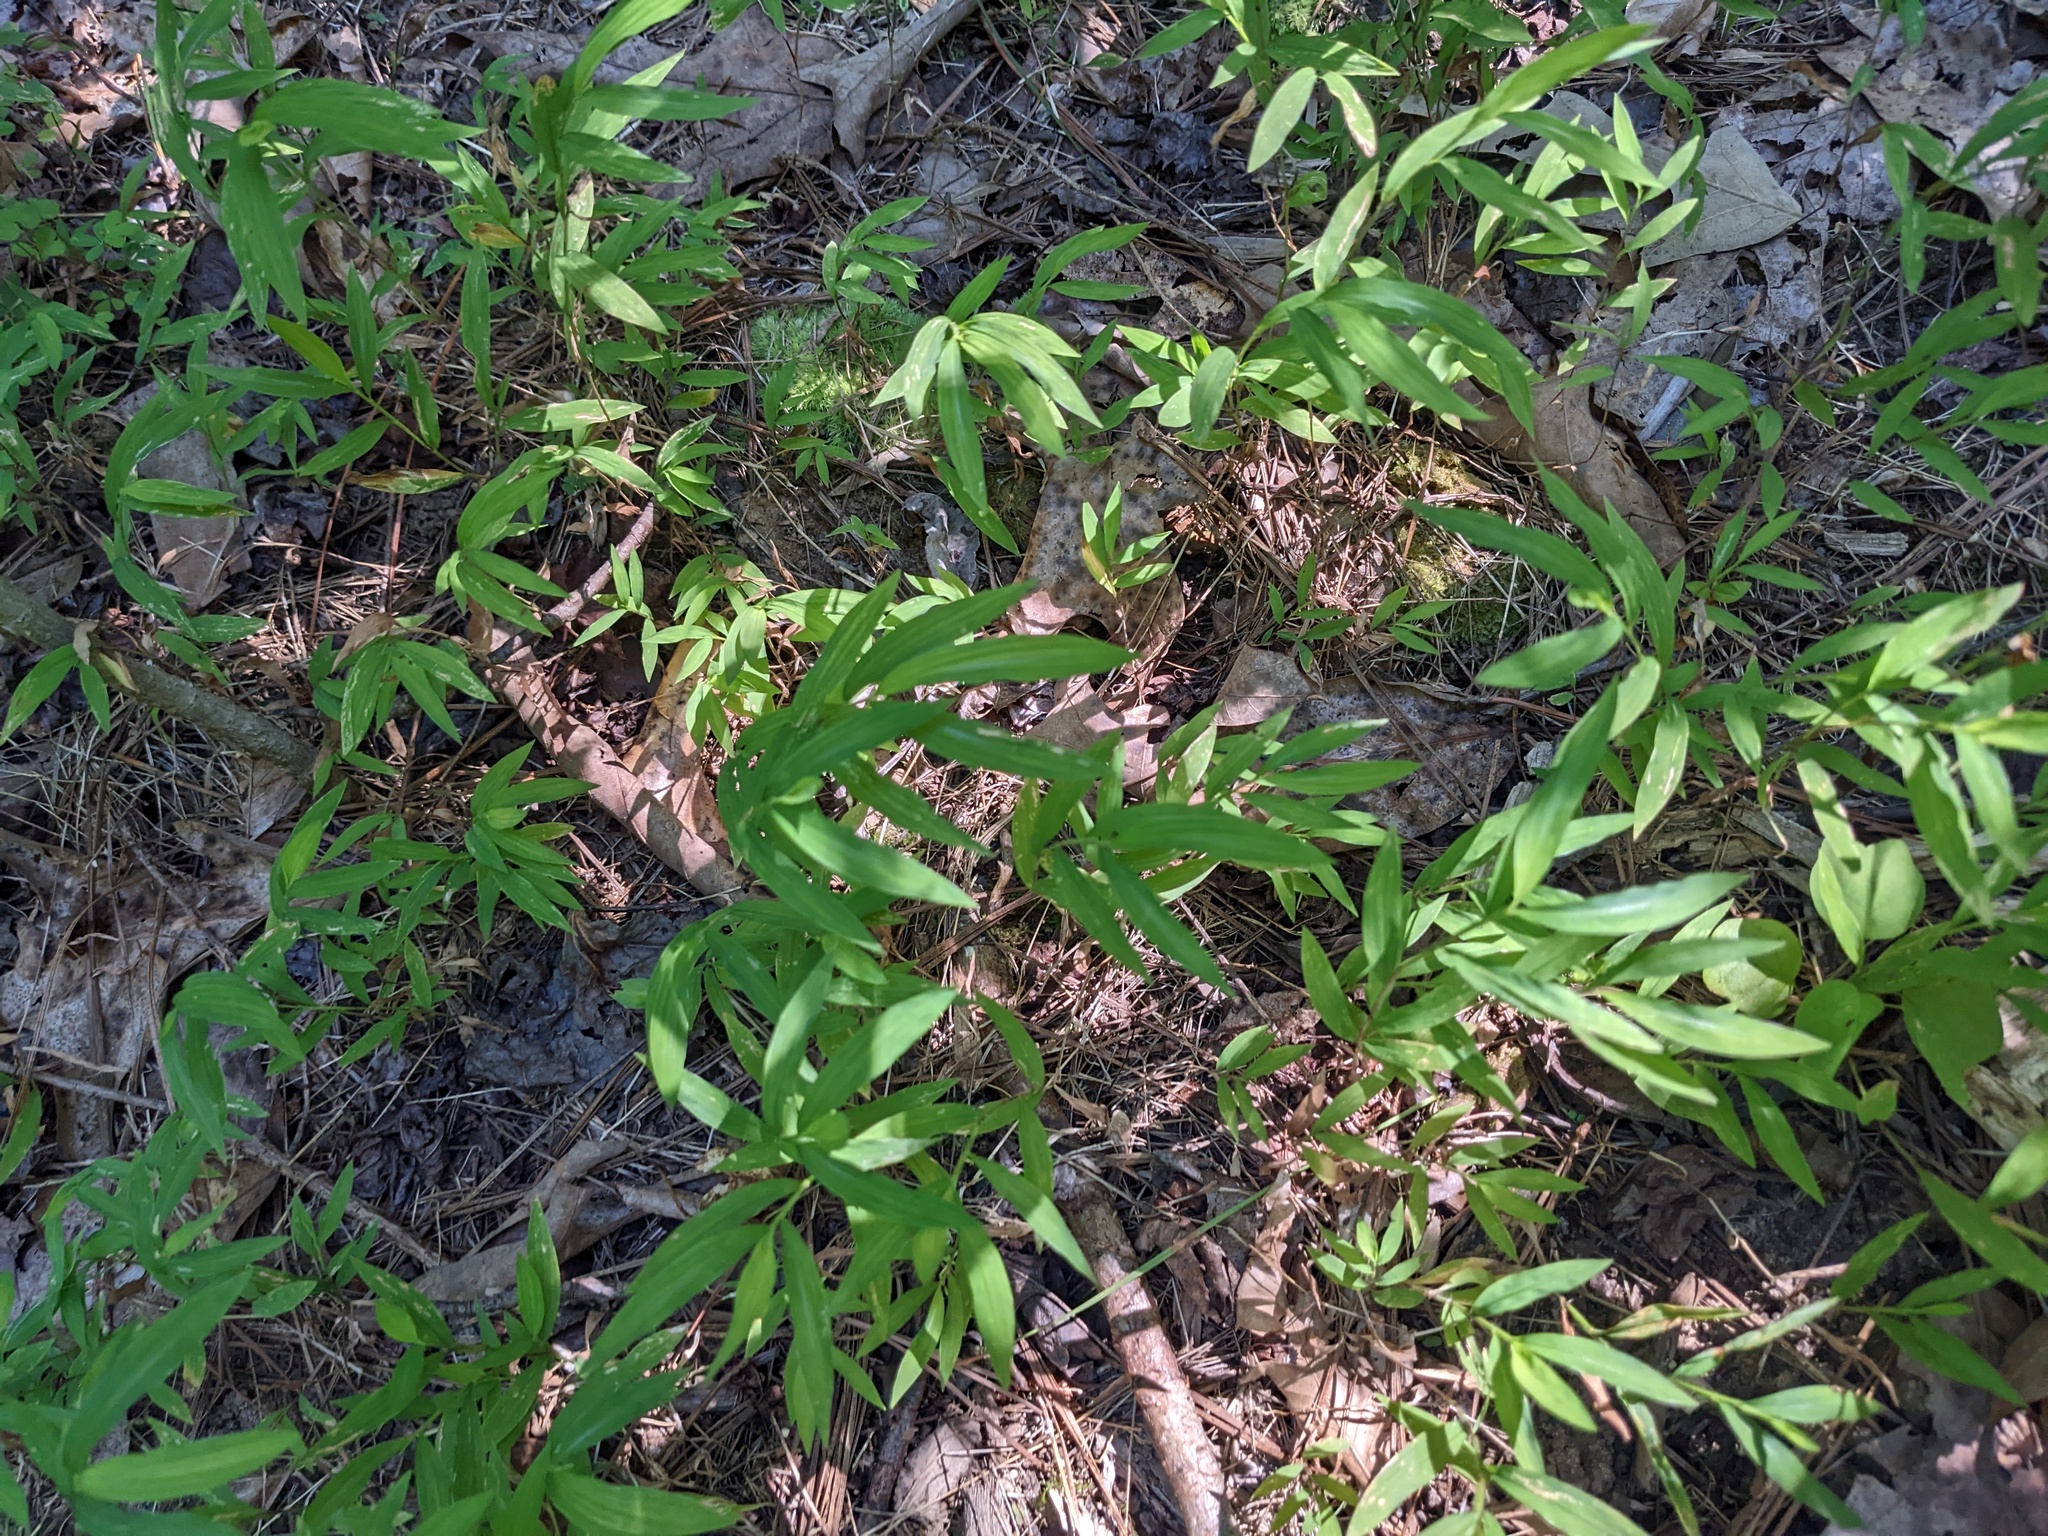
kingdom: Plantae
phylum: Tracheophyta
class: Liliopsida
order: Poales
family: Poaceae
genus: Microstegium
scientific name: Microstegium vimineum
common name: Japanese stiltgrass
